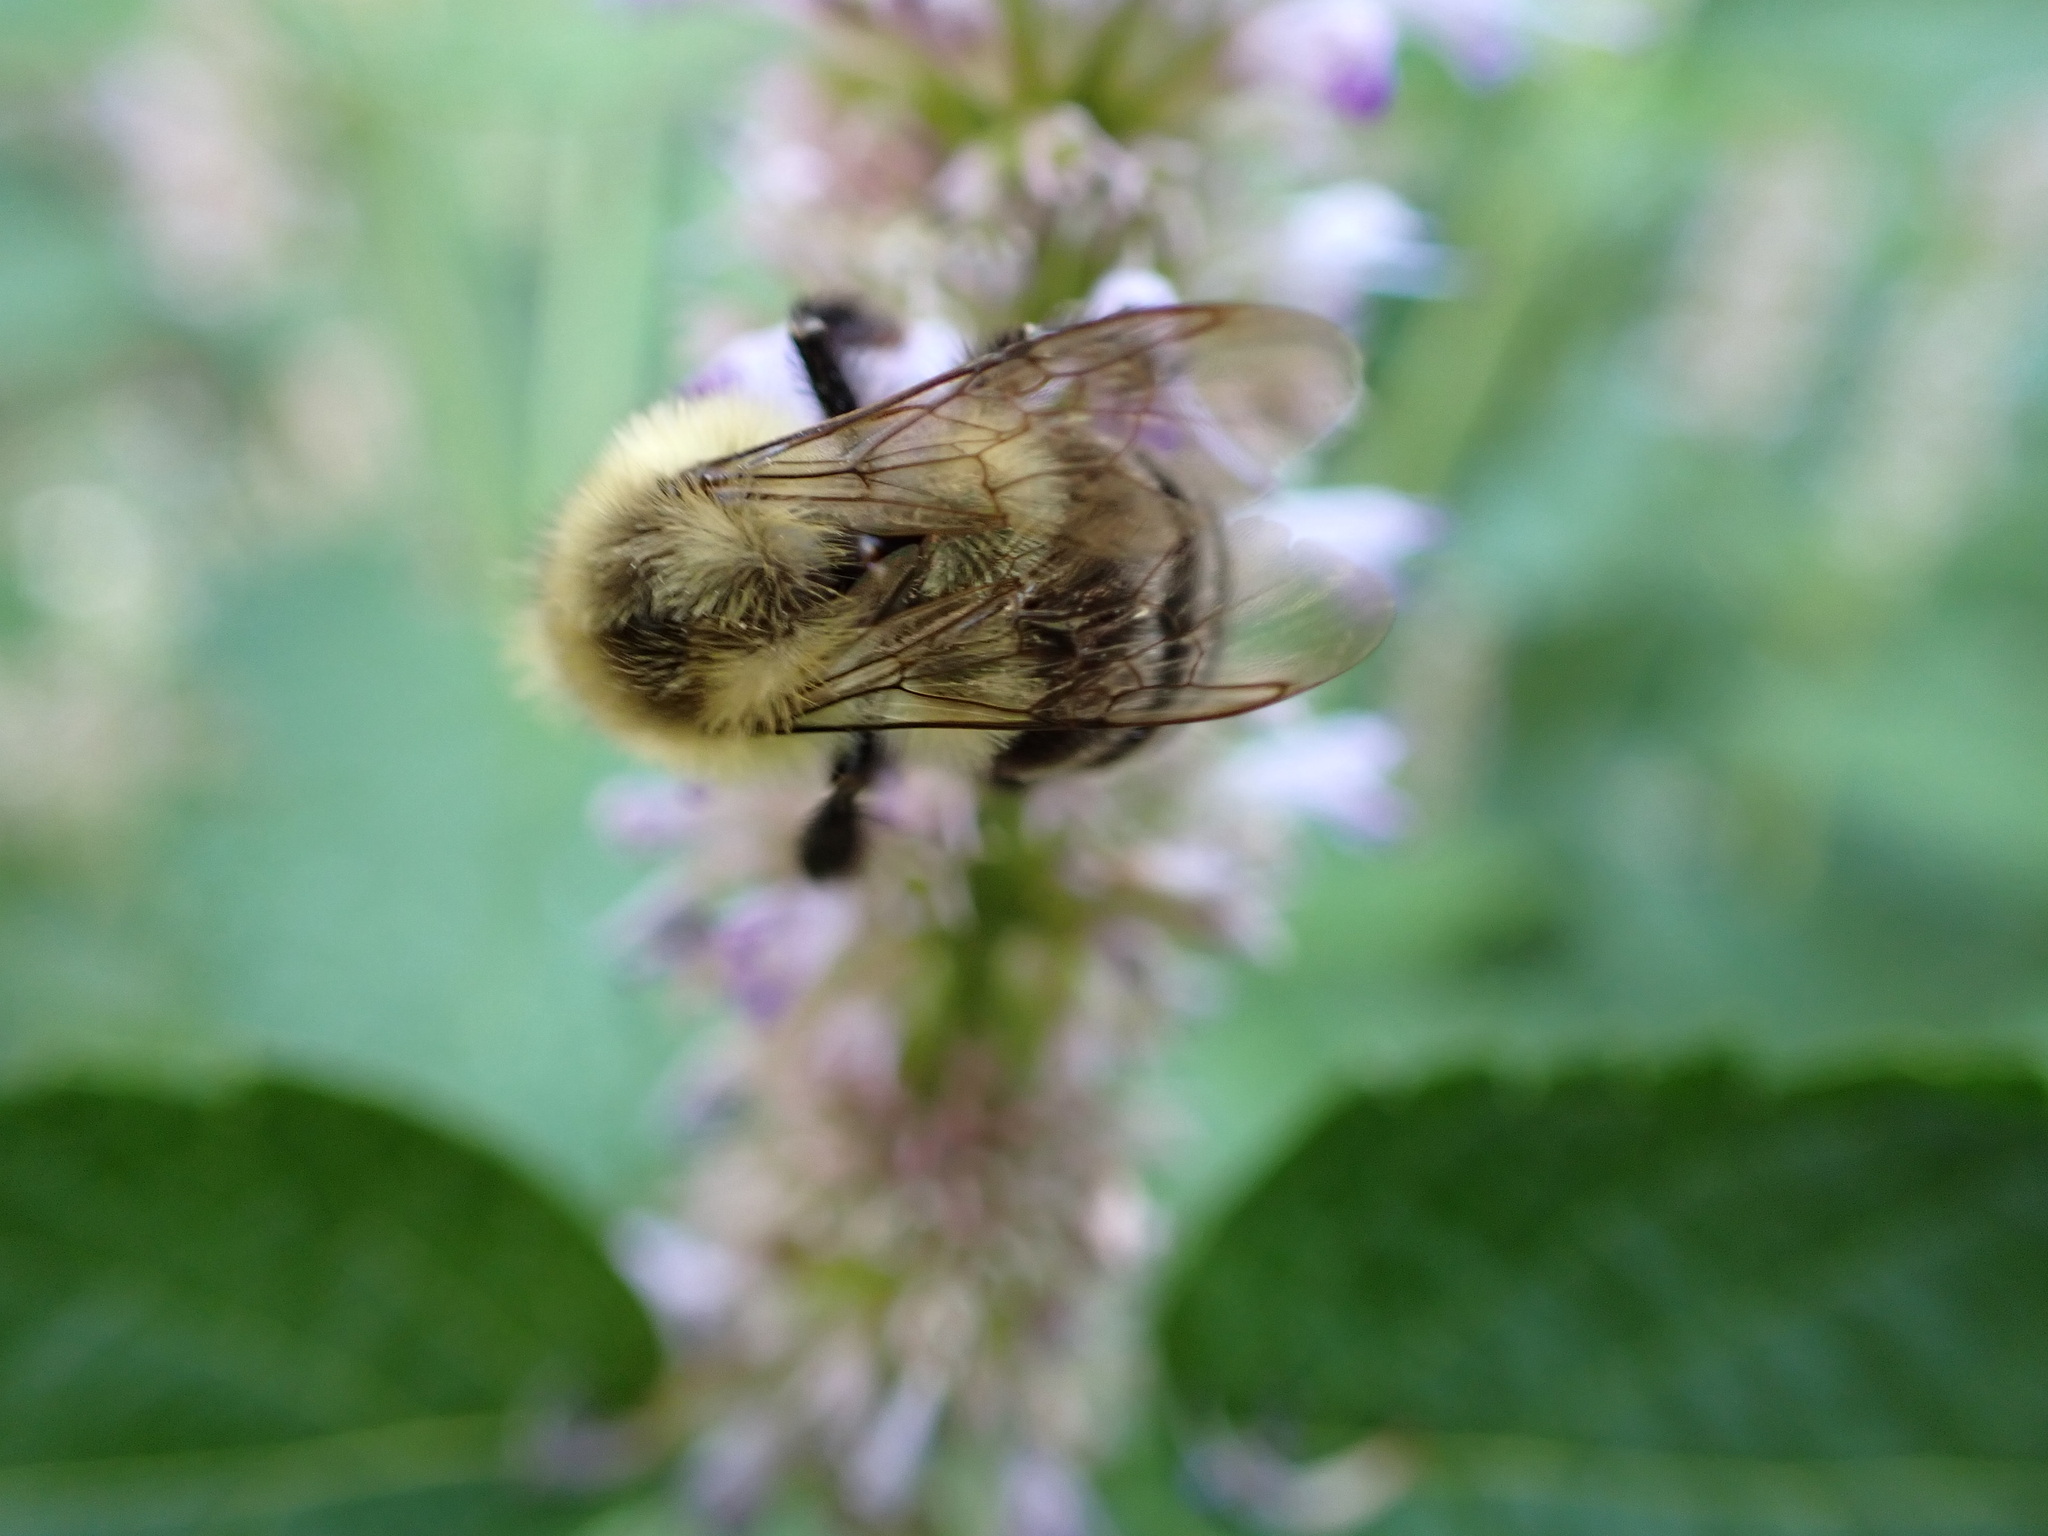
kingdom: Animalia
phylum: Arthropoda
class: Insecta
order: Hymenoptera
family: Apidae
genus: Bombus
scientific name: Bombus impatiens
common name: Common eastern bumble bee
